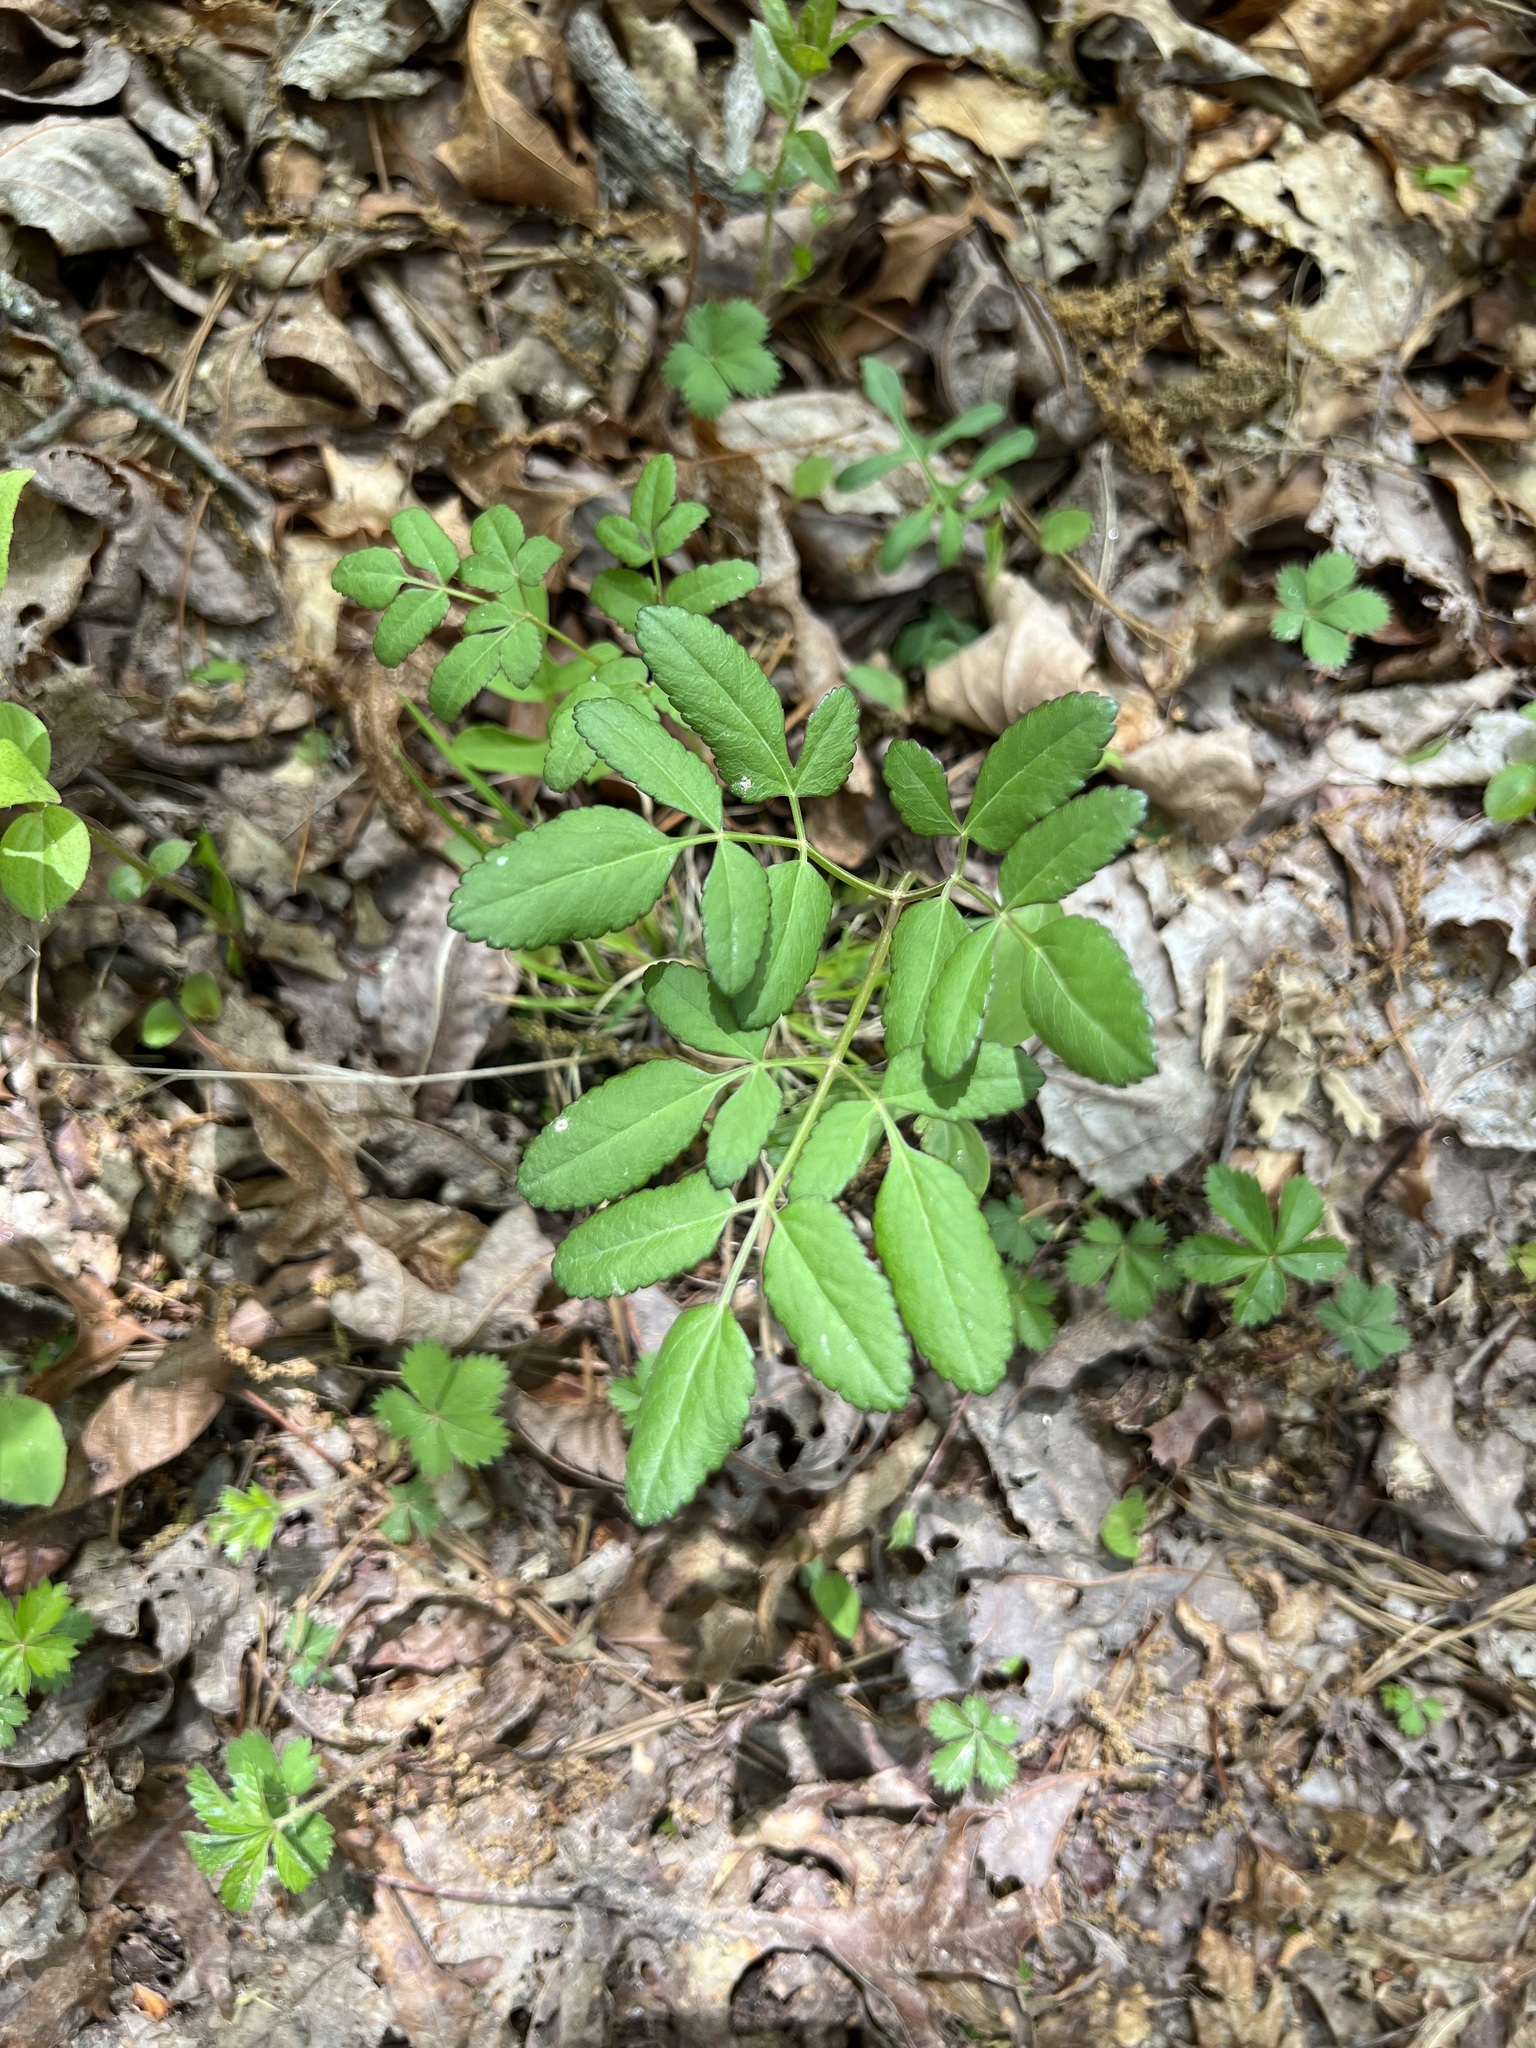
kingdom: Plantae
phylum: Tracheophyta
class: Magnoliopsida
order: Apiales
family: Apiaceae
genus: Angelica
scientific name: Angelica venenosa
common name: Hairy angelica
